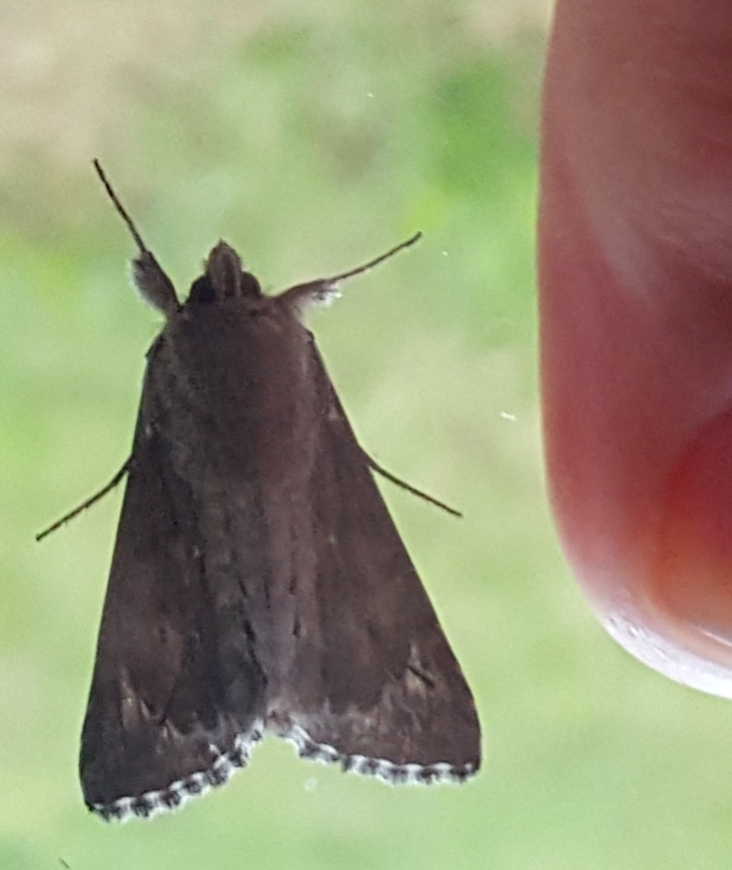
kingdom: Animalia
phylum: Arthropoda
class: Insecta
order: Lepidoptera
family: Noctuidae
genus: Autographa
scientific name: Autographa californica
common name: Alfalfa looper
